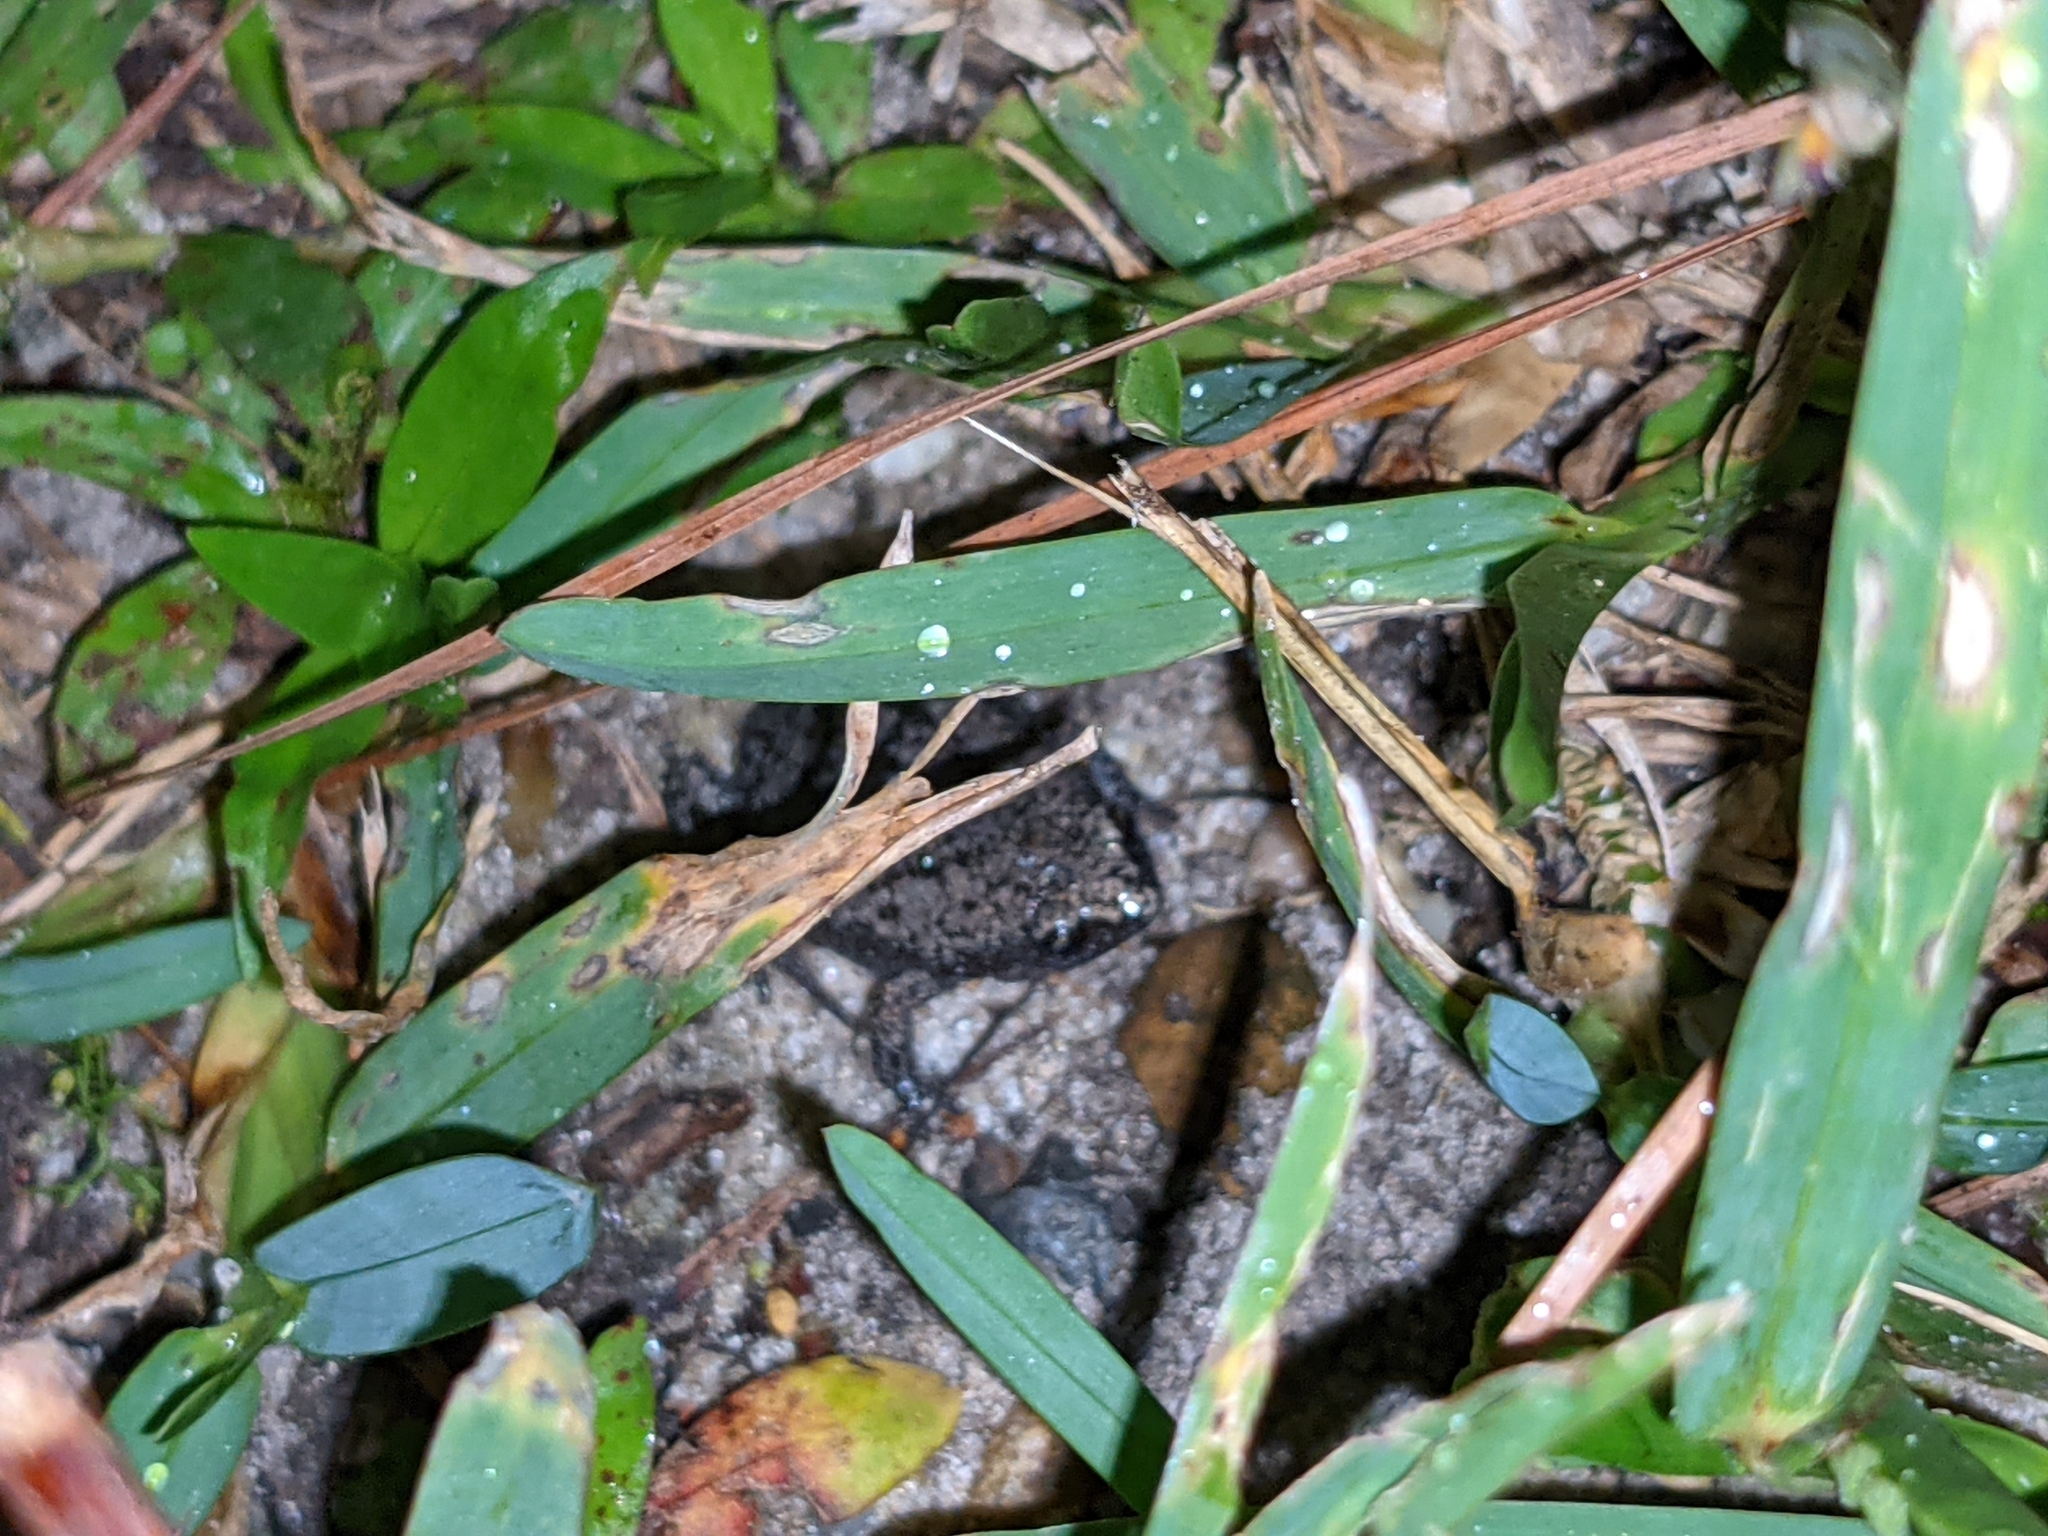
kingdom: Animalia
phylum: Chordata
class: Amphibia
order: Anura
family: Microhylidae
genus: Gastrophryne
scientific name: Gastrophryne carolinensis
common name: Eastern narrowmouth toad
